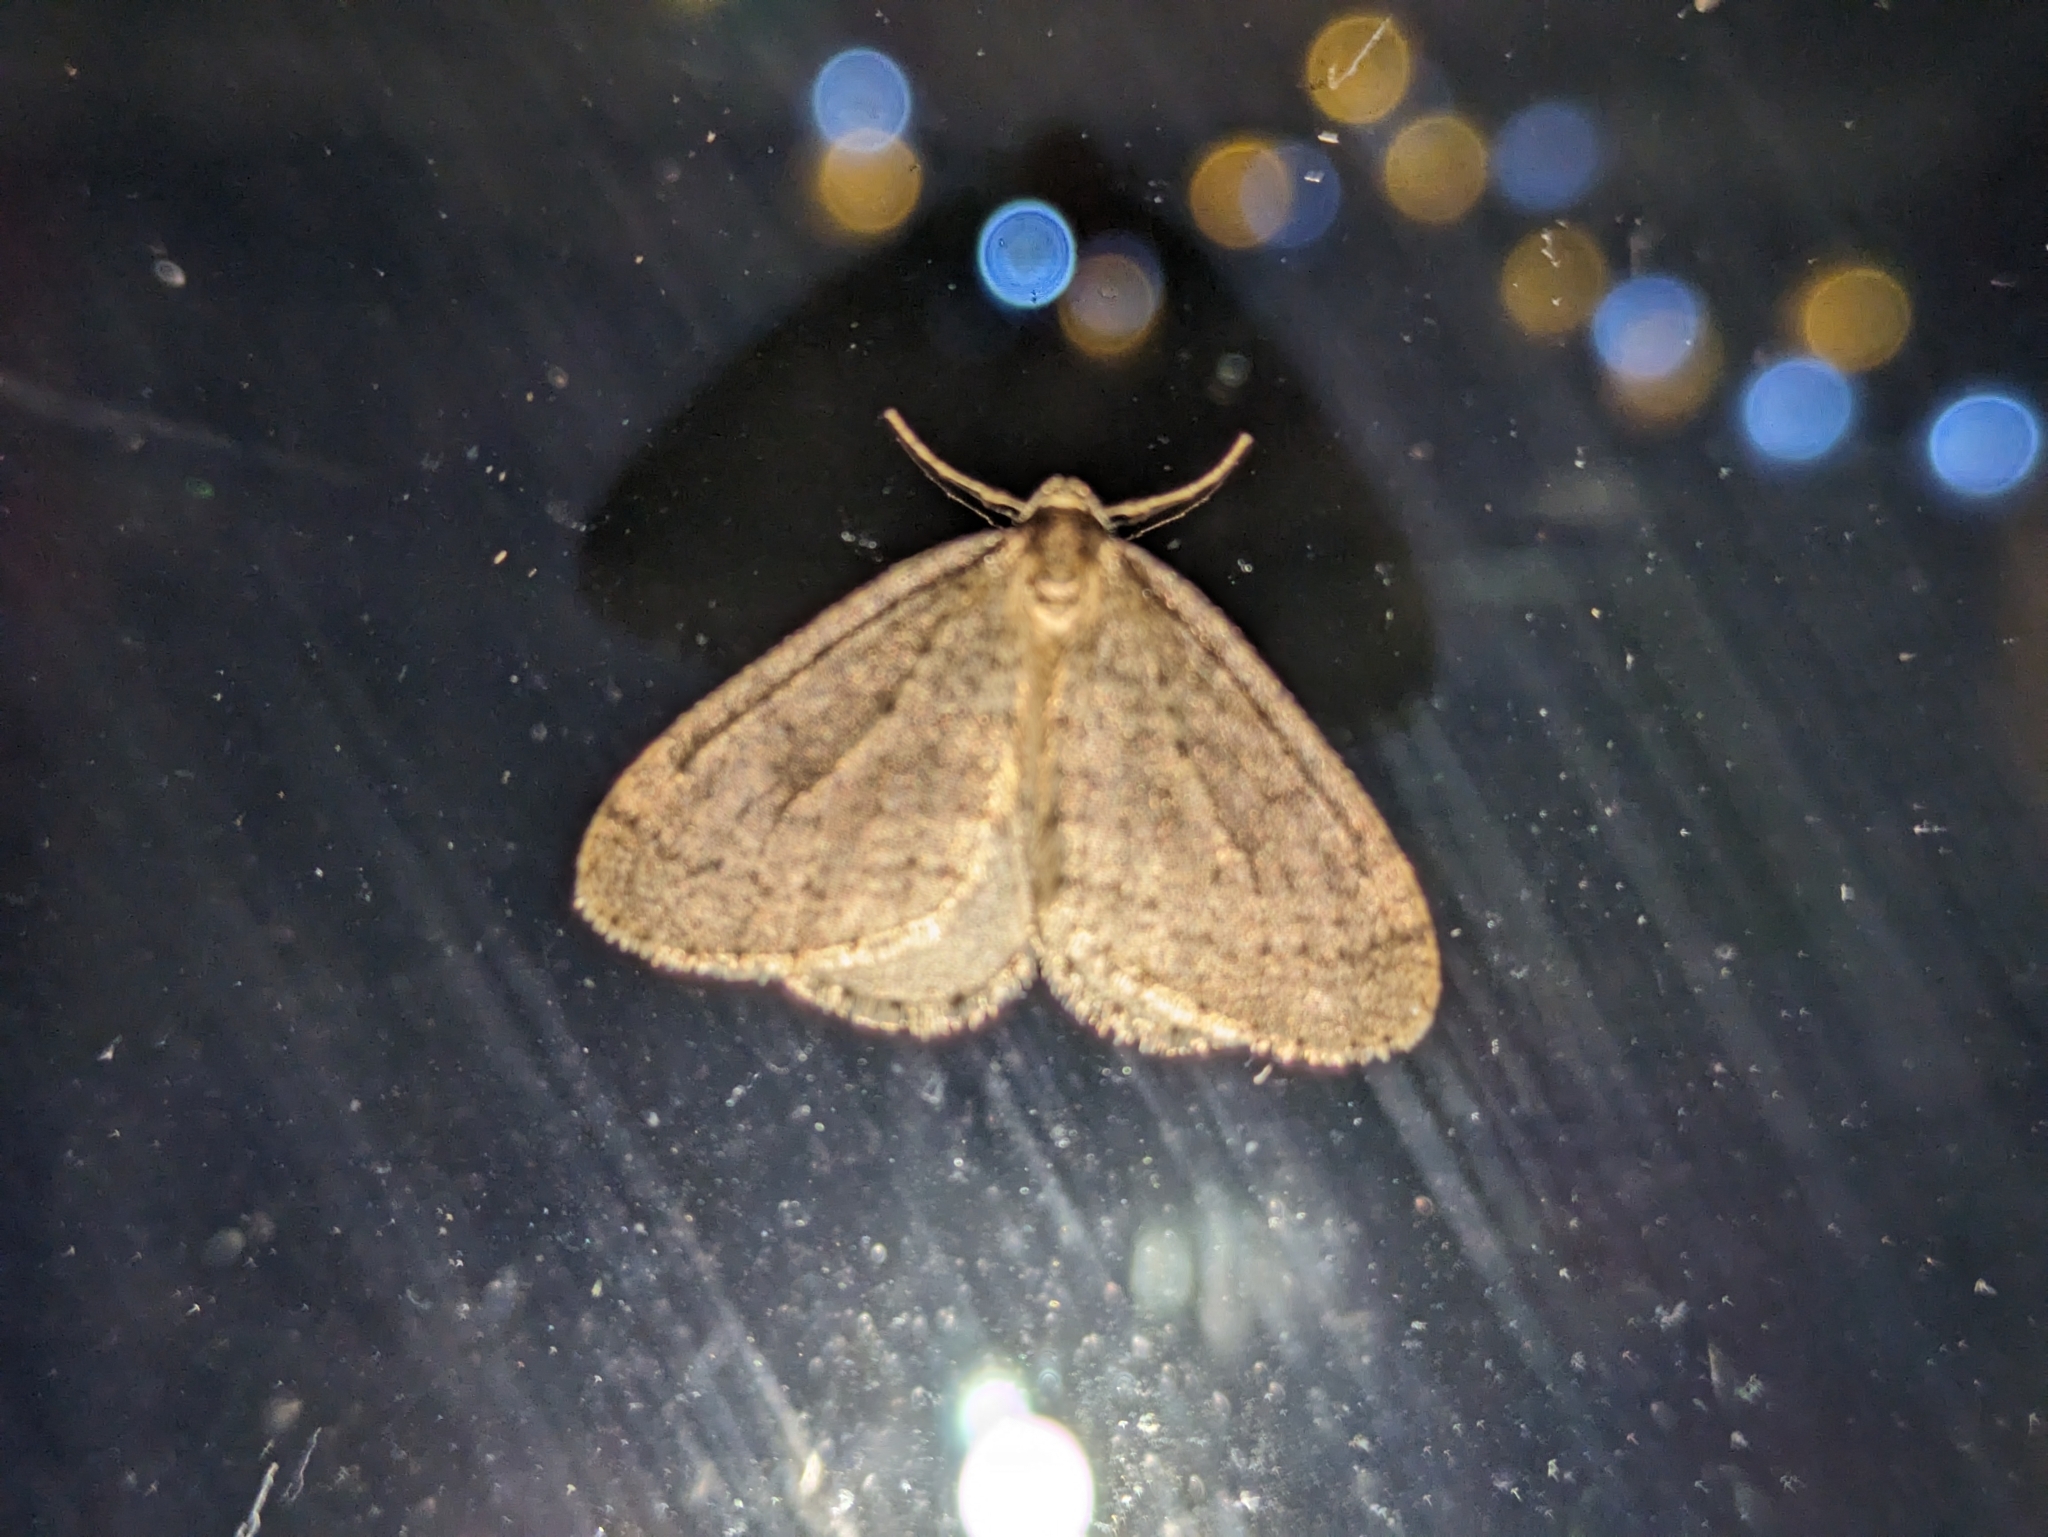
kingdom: Animalia
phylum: Arthropoda
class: Insecta
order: Lepidoptera
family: Geometridae
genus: Operophtera
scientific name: Operophtera brumata
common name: Winter moth
